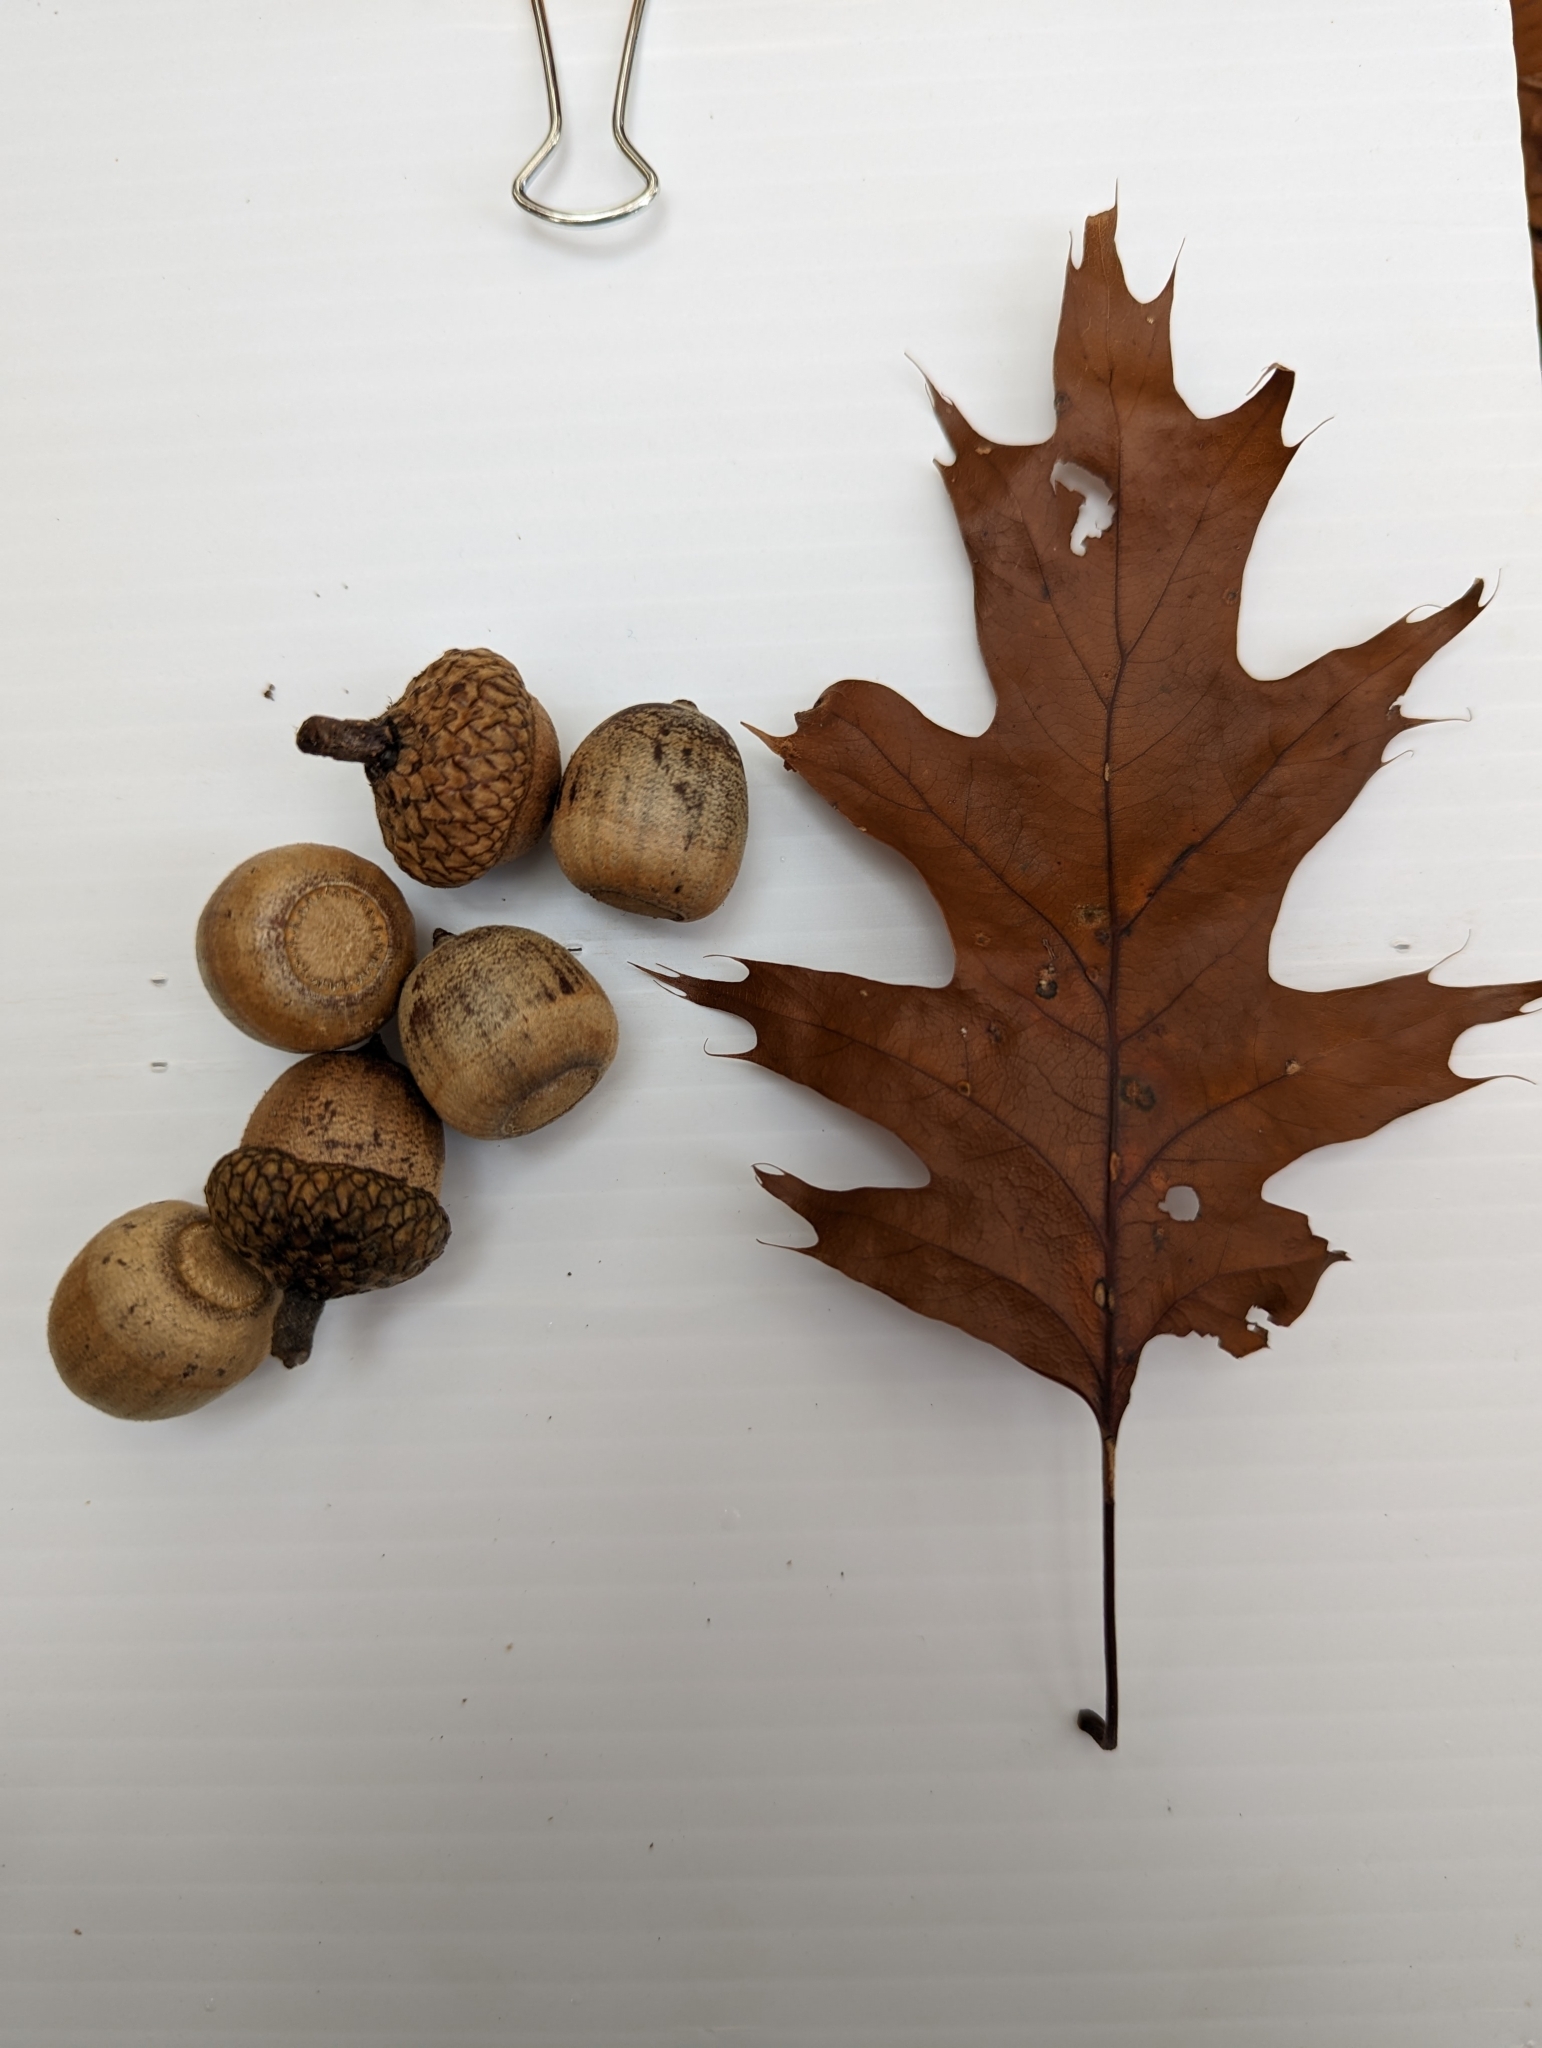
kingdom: Plantae
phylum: Tracheophyta
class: Magnoliopsida
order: Fagales
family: Fagaceae
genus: Quercus
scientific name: Quercus rubra
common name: Red oak
